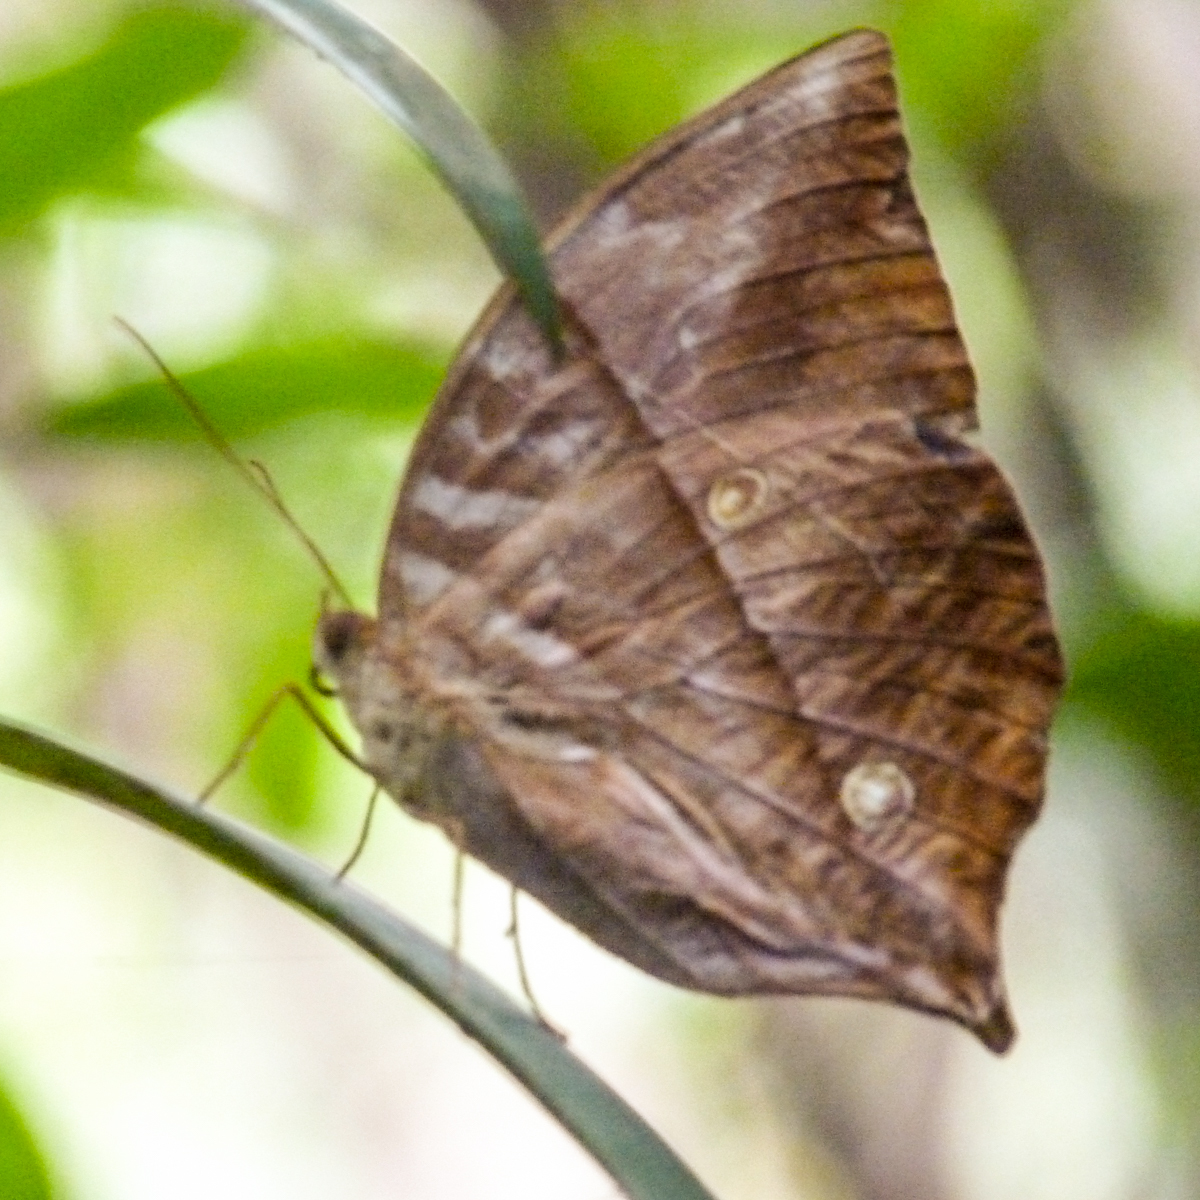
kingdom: Animalia
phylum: Arthropoda
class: Insecta
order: Lepidoptera
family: Nymphalidae
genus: Zeuxidia
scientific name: Zeuxidia
